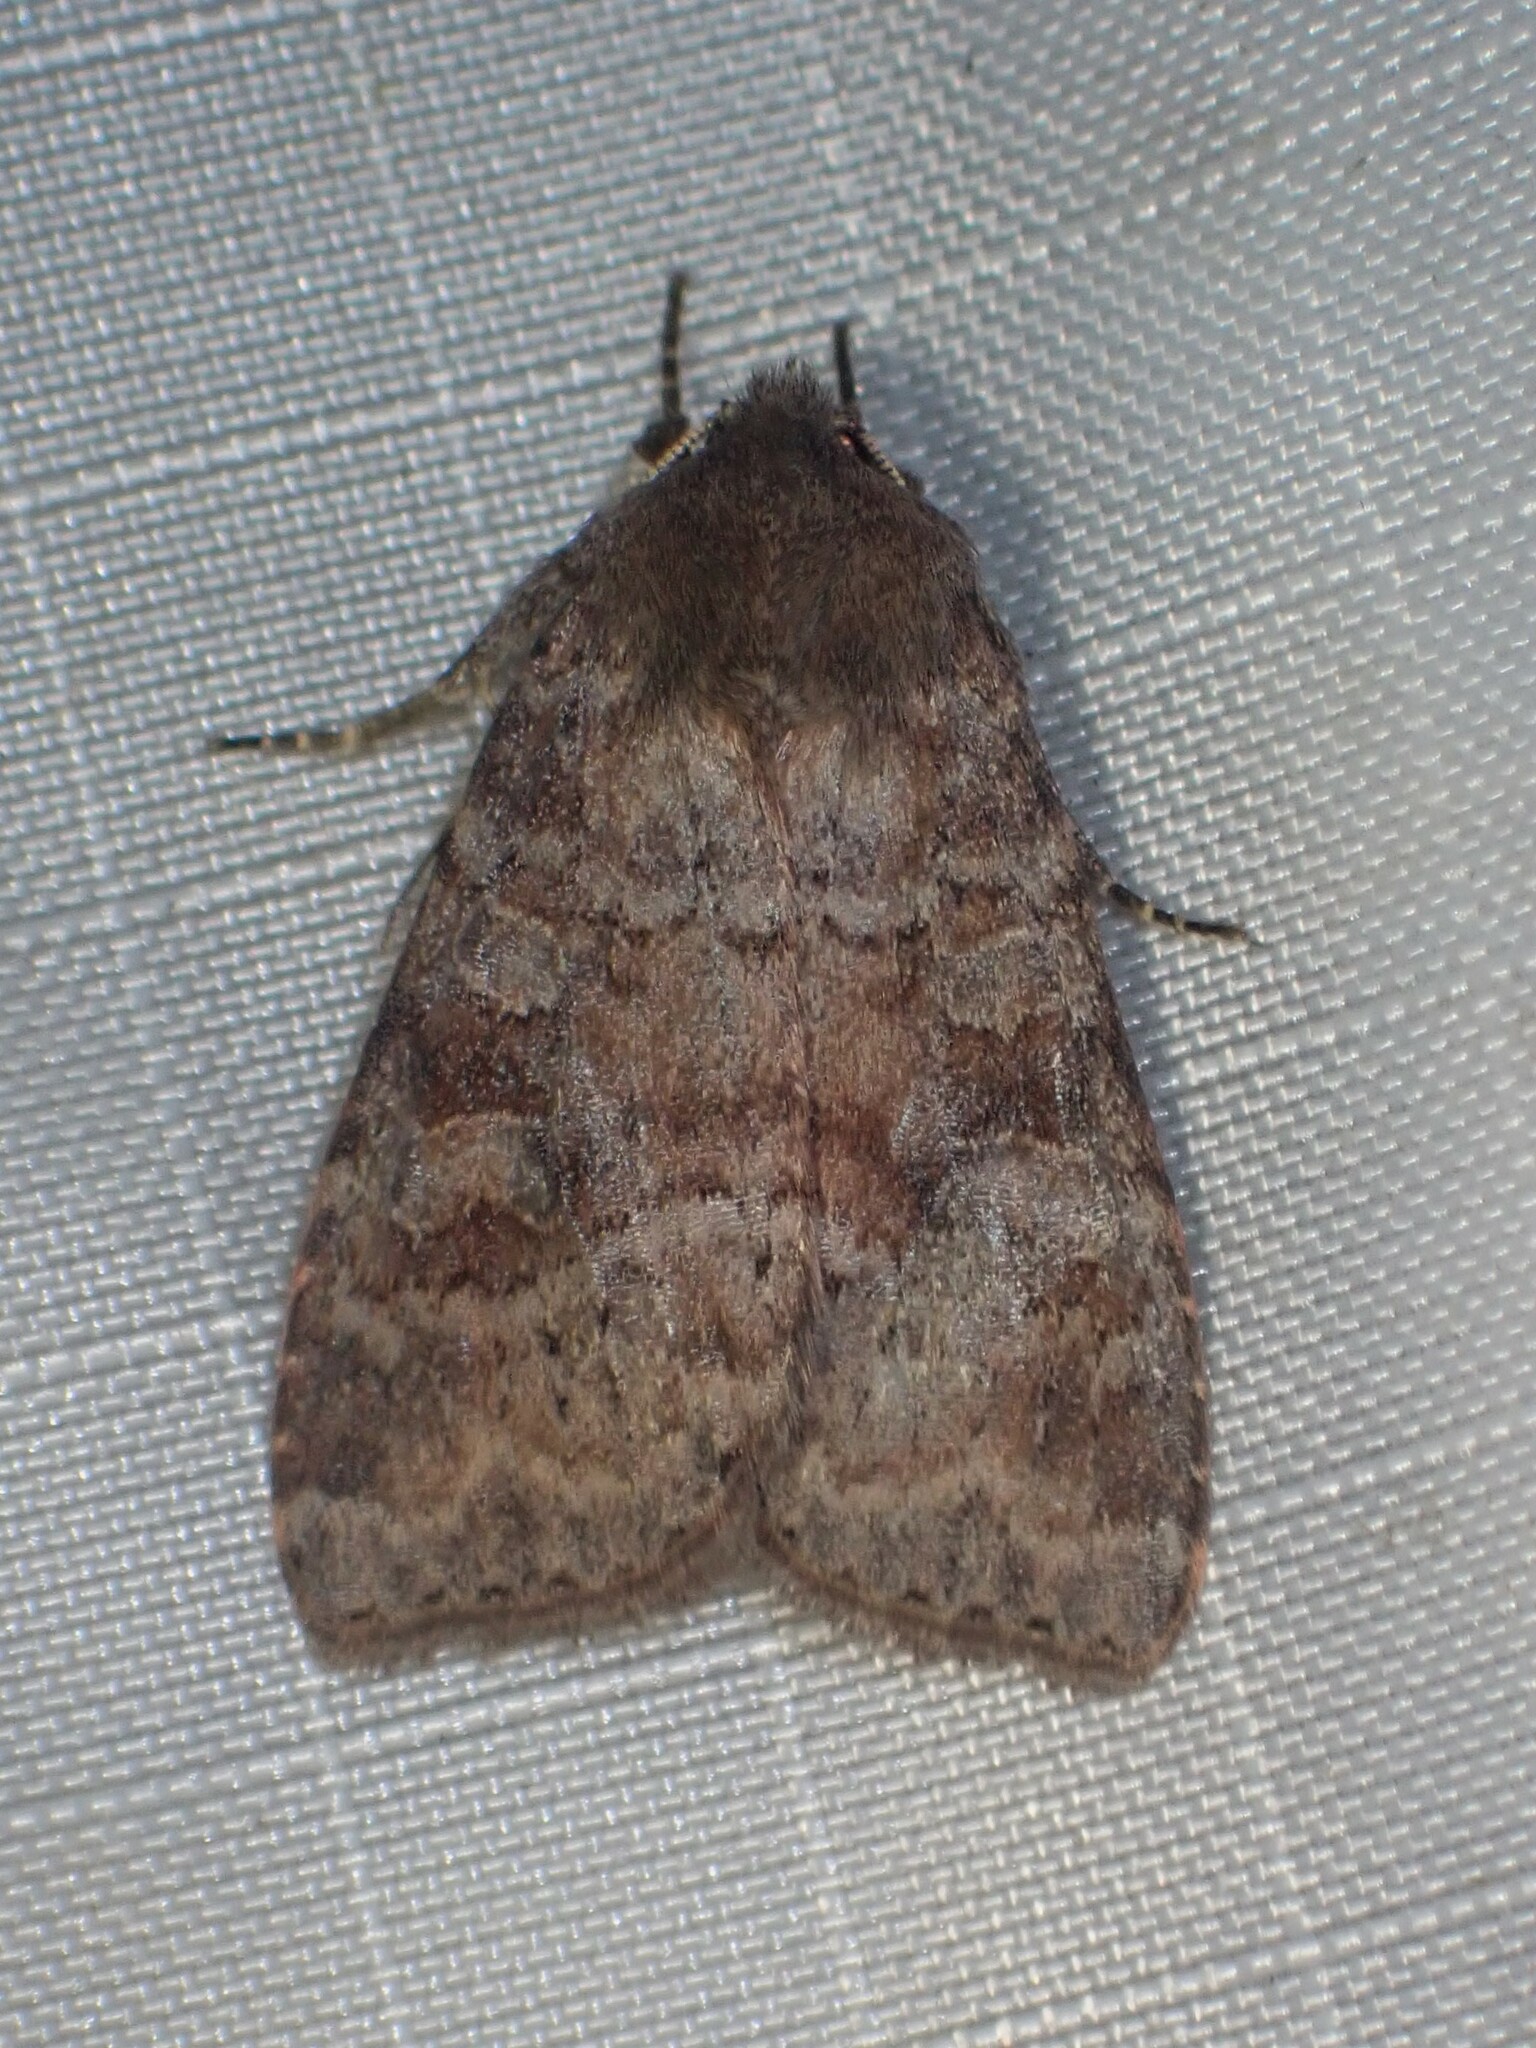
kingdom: Animalia
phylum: Arthropoda
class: Insecta
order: Lepidoptera
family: Noctuidae
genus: Parastichtis
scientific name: Parastichtis suspecta
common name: Suspected
